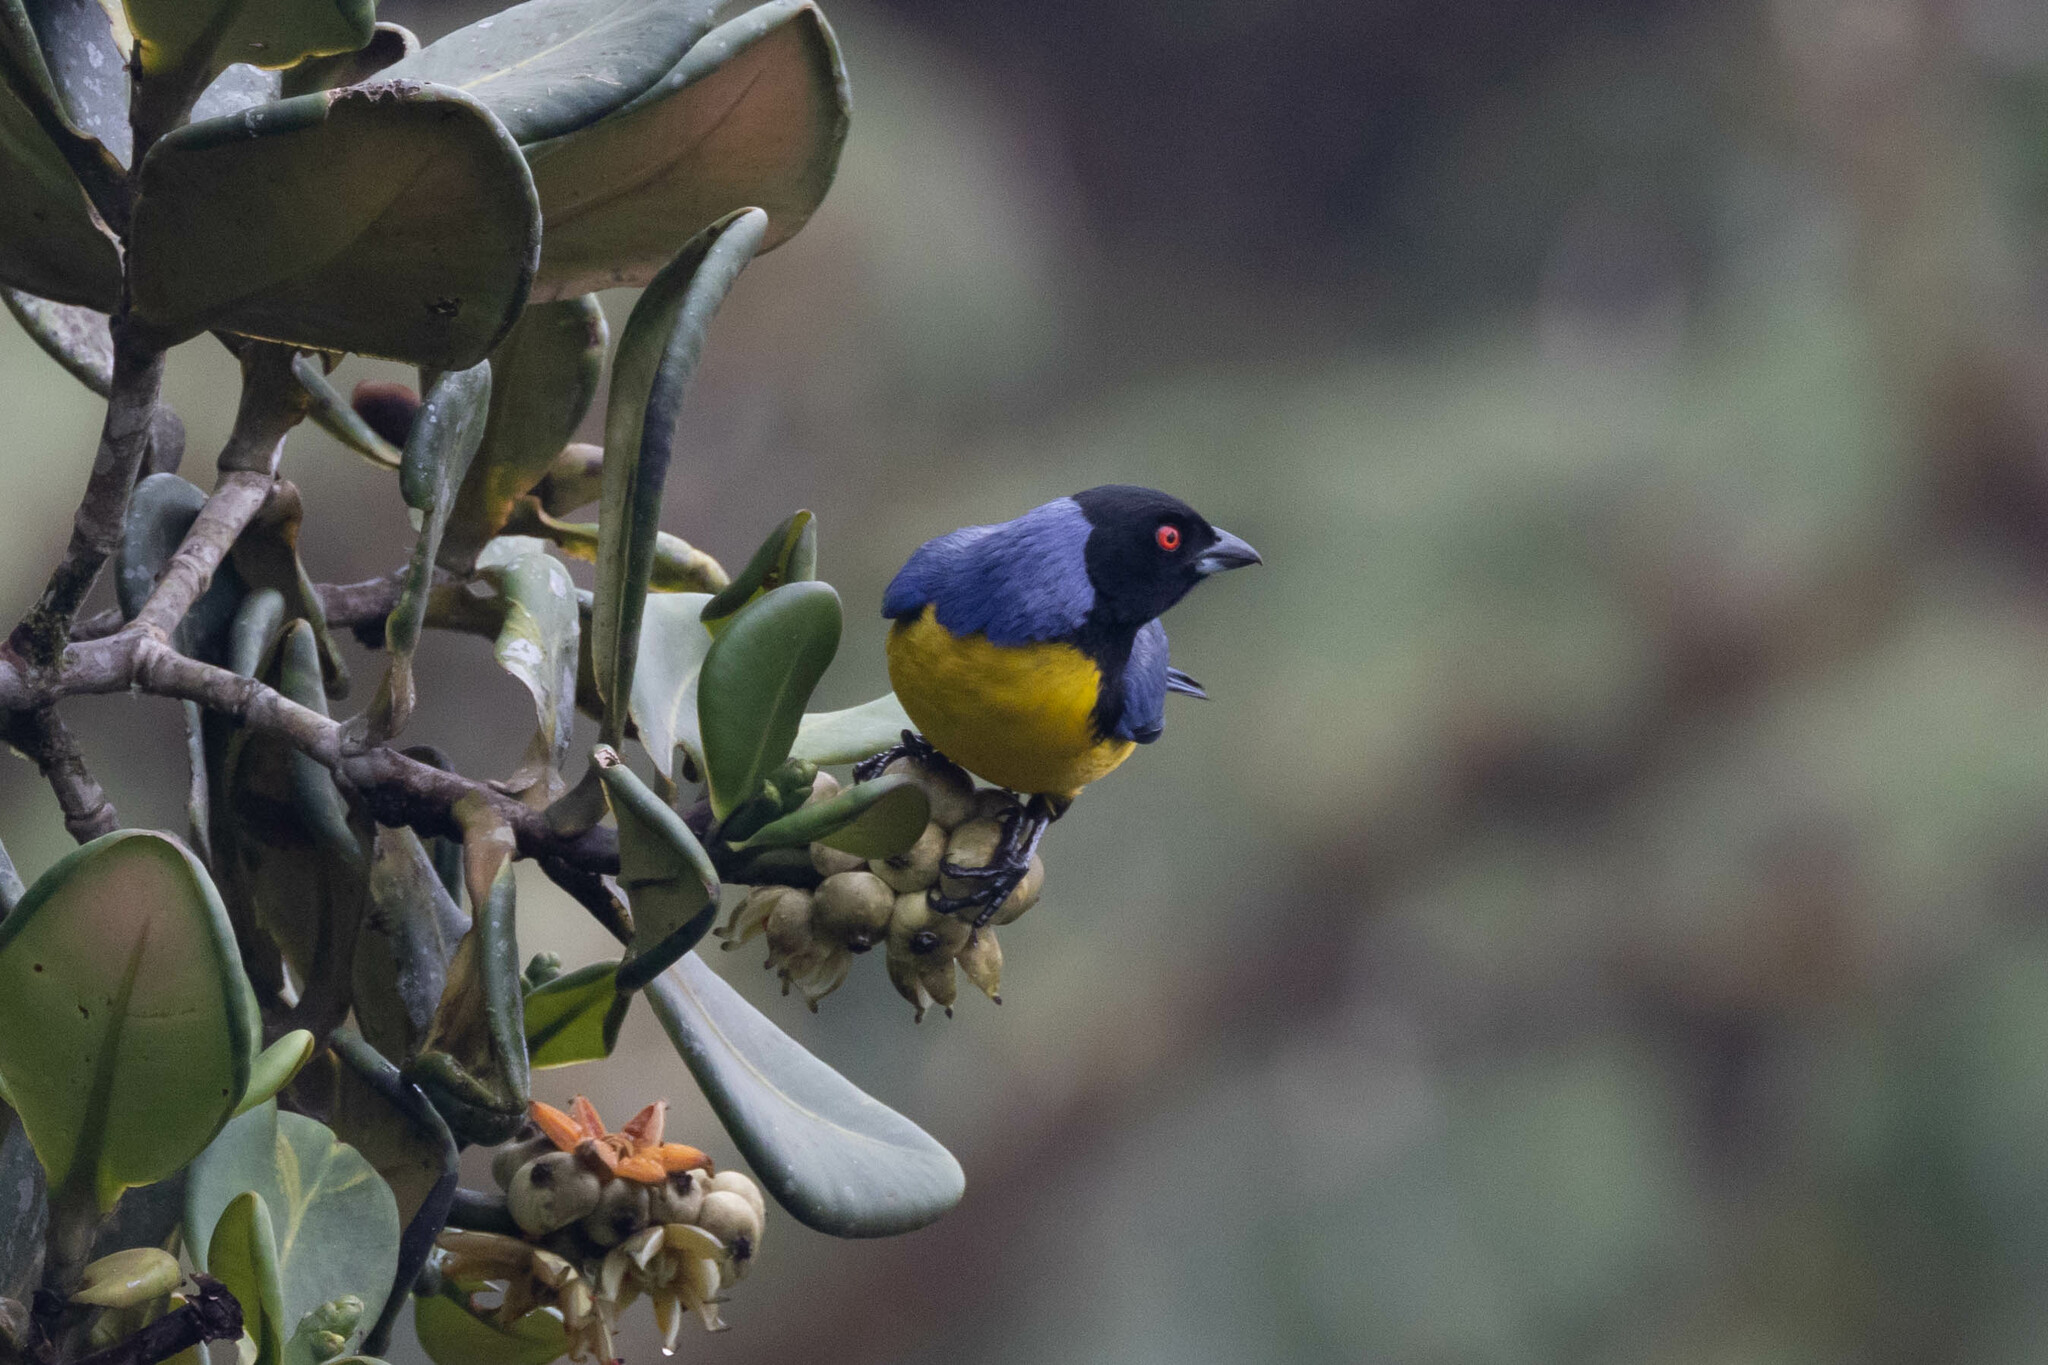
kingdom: Animalia
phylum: Chordata
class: Aves
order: Passeriformes
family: Thraupidae
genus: Buthraupis
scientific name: Buthraupis montana
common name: Hooded mountain tanager
